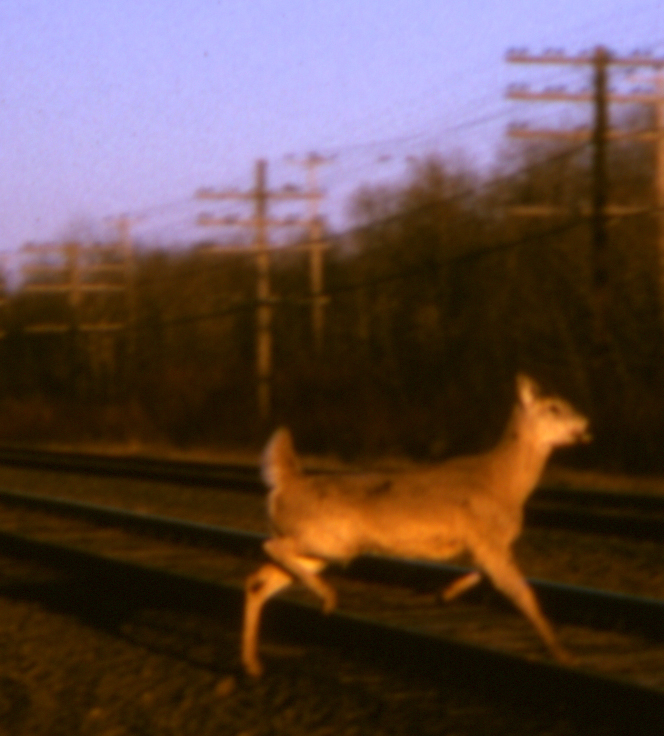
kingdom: Animalia
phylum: Chordata
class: Mammalia
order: Artiodactyla
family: Cervidae
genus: Odocoileus
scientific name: Odocoileus virginianus
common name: White-tailed deer
